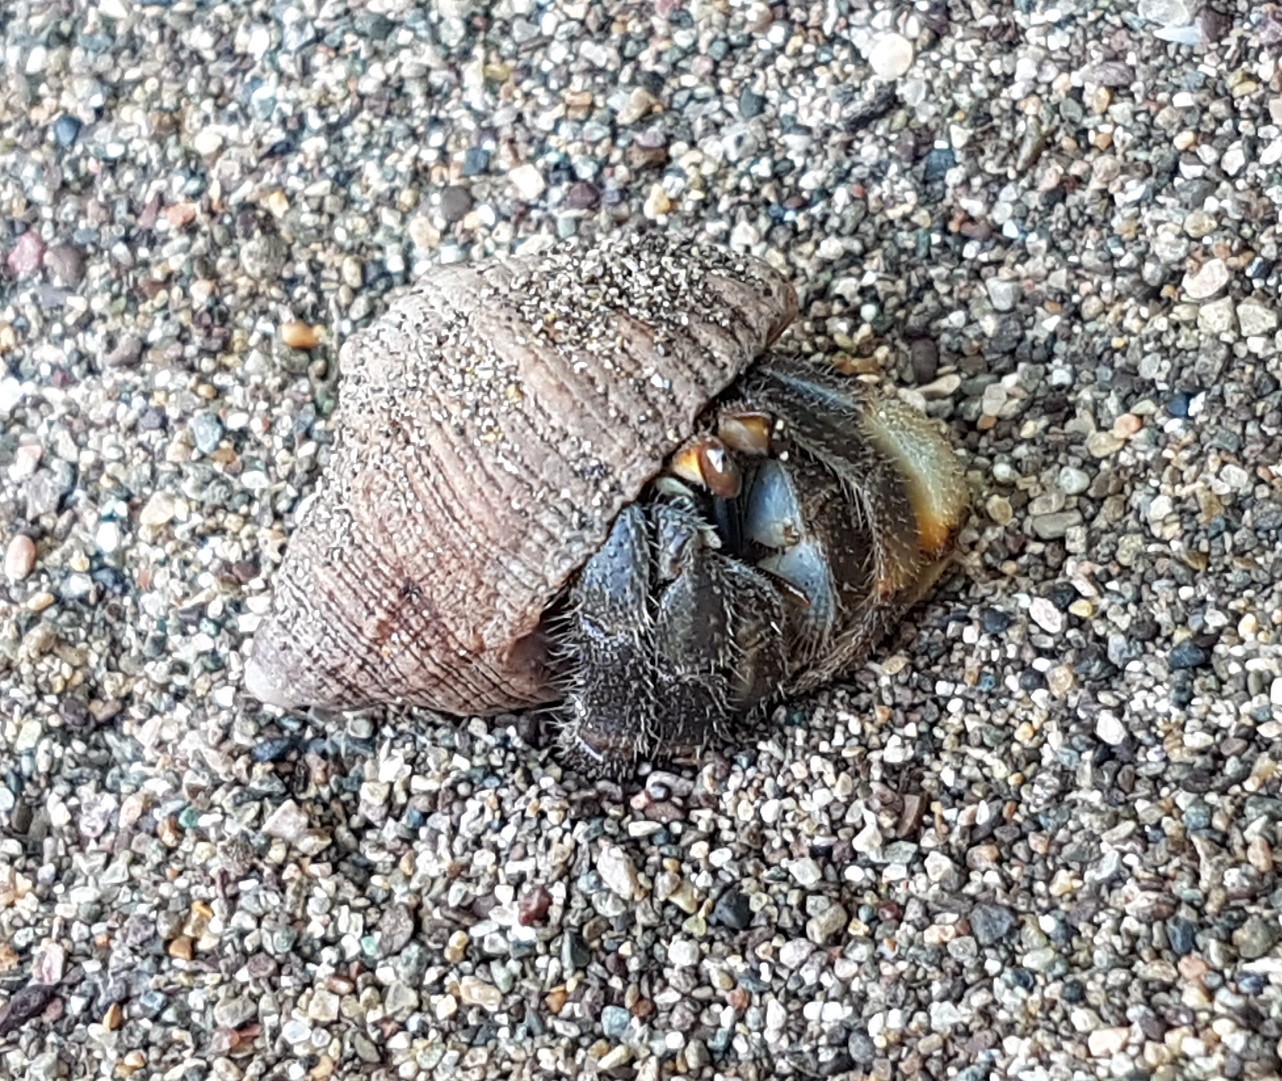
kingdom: Animalia
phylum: Arthropoda
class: Malacostraca
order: Decapoda
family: Coenobitidae
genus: Coenobita
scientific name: Coenobita compressus
